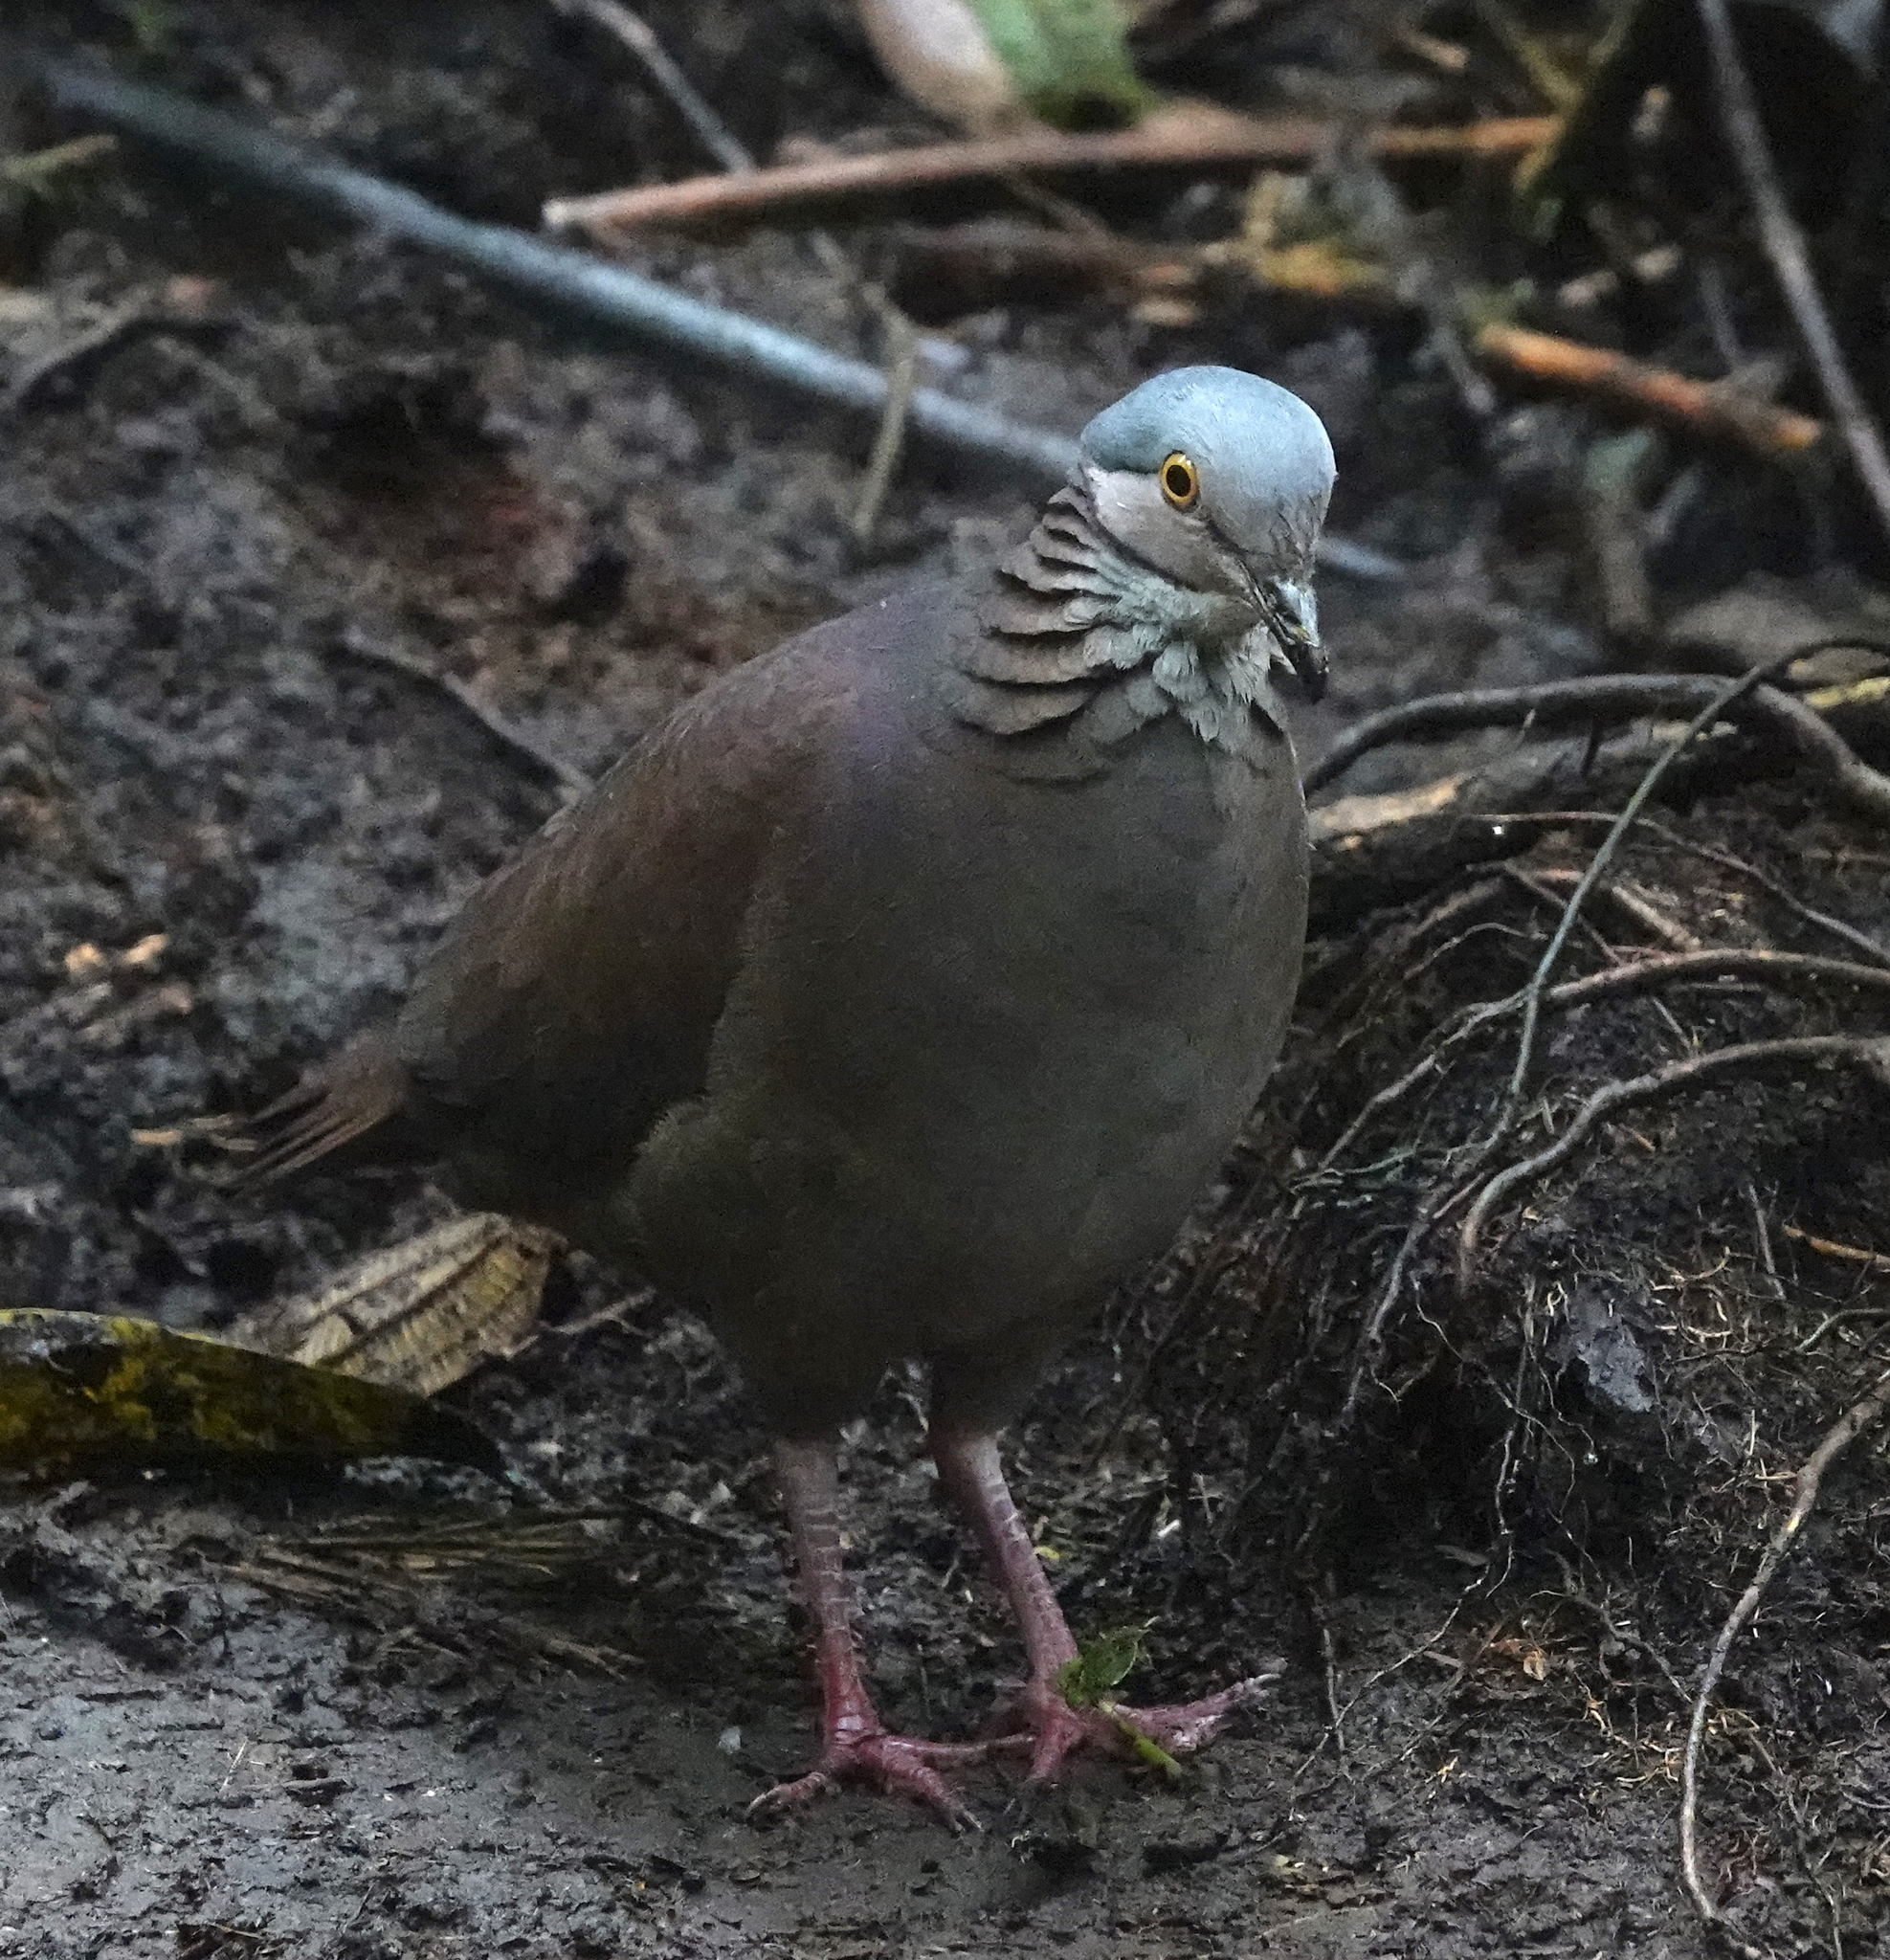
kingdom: Animalia
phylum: Chordata
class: Aves
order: Columbiformes
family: Columbidae
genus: Zentrygon
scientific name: Zentrygon frenata
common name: White-throated quail-dove
